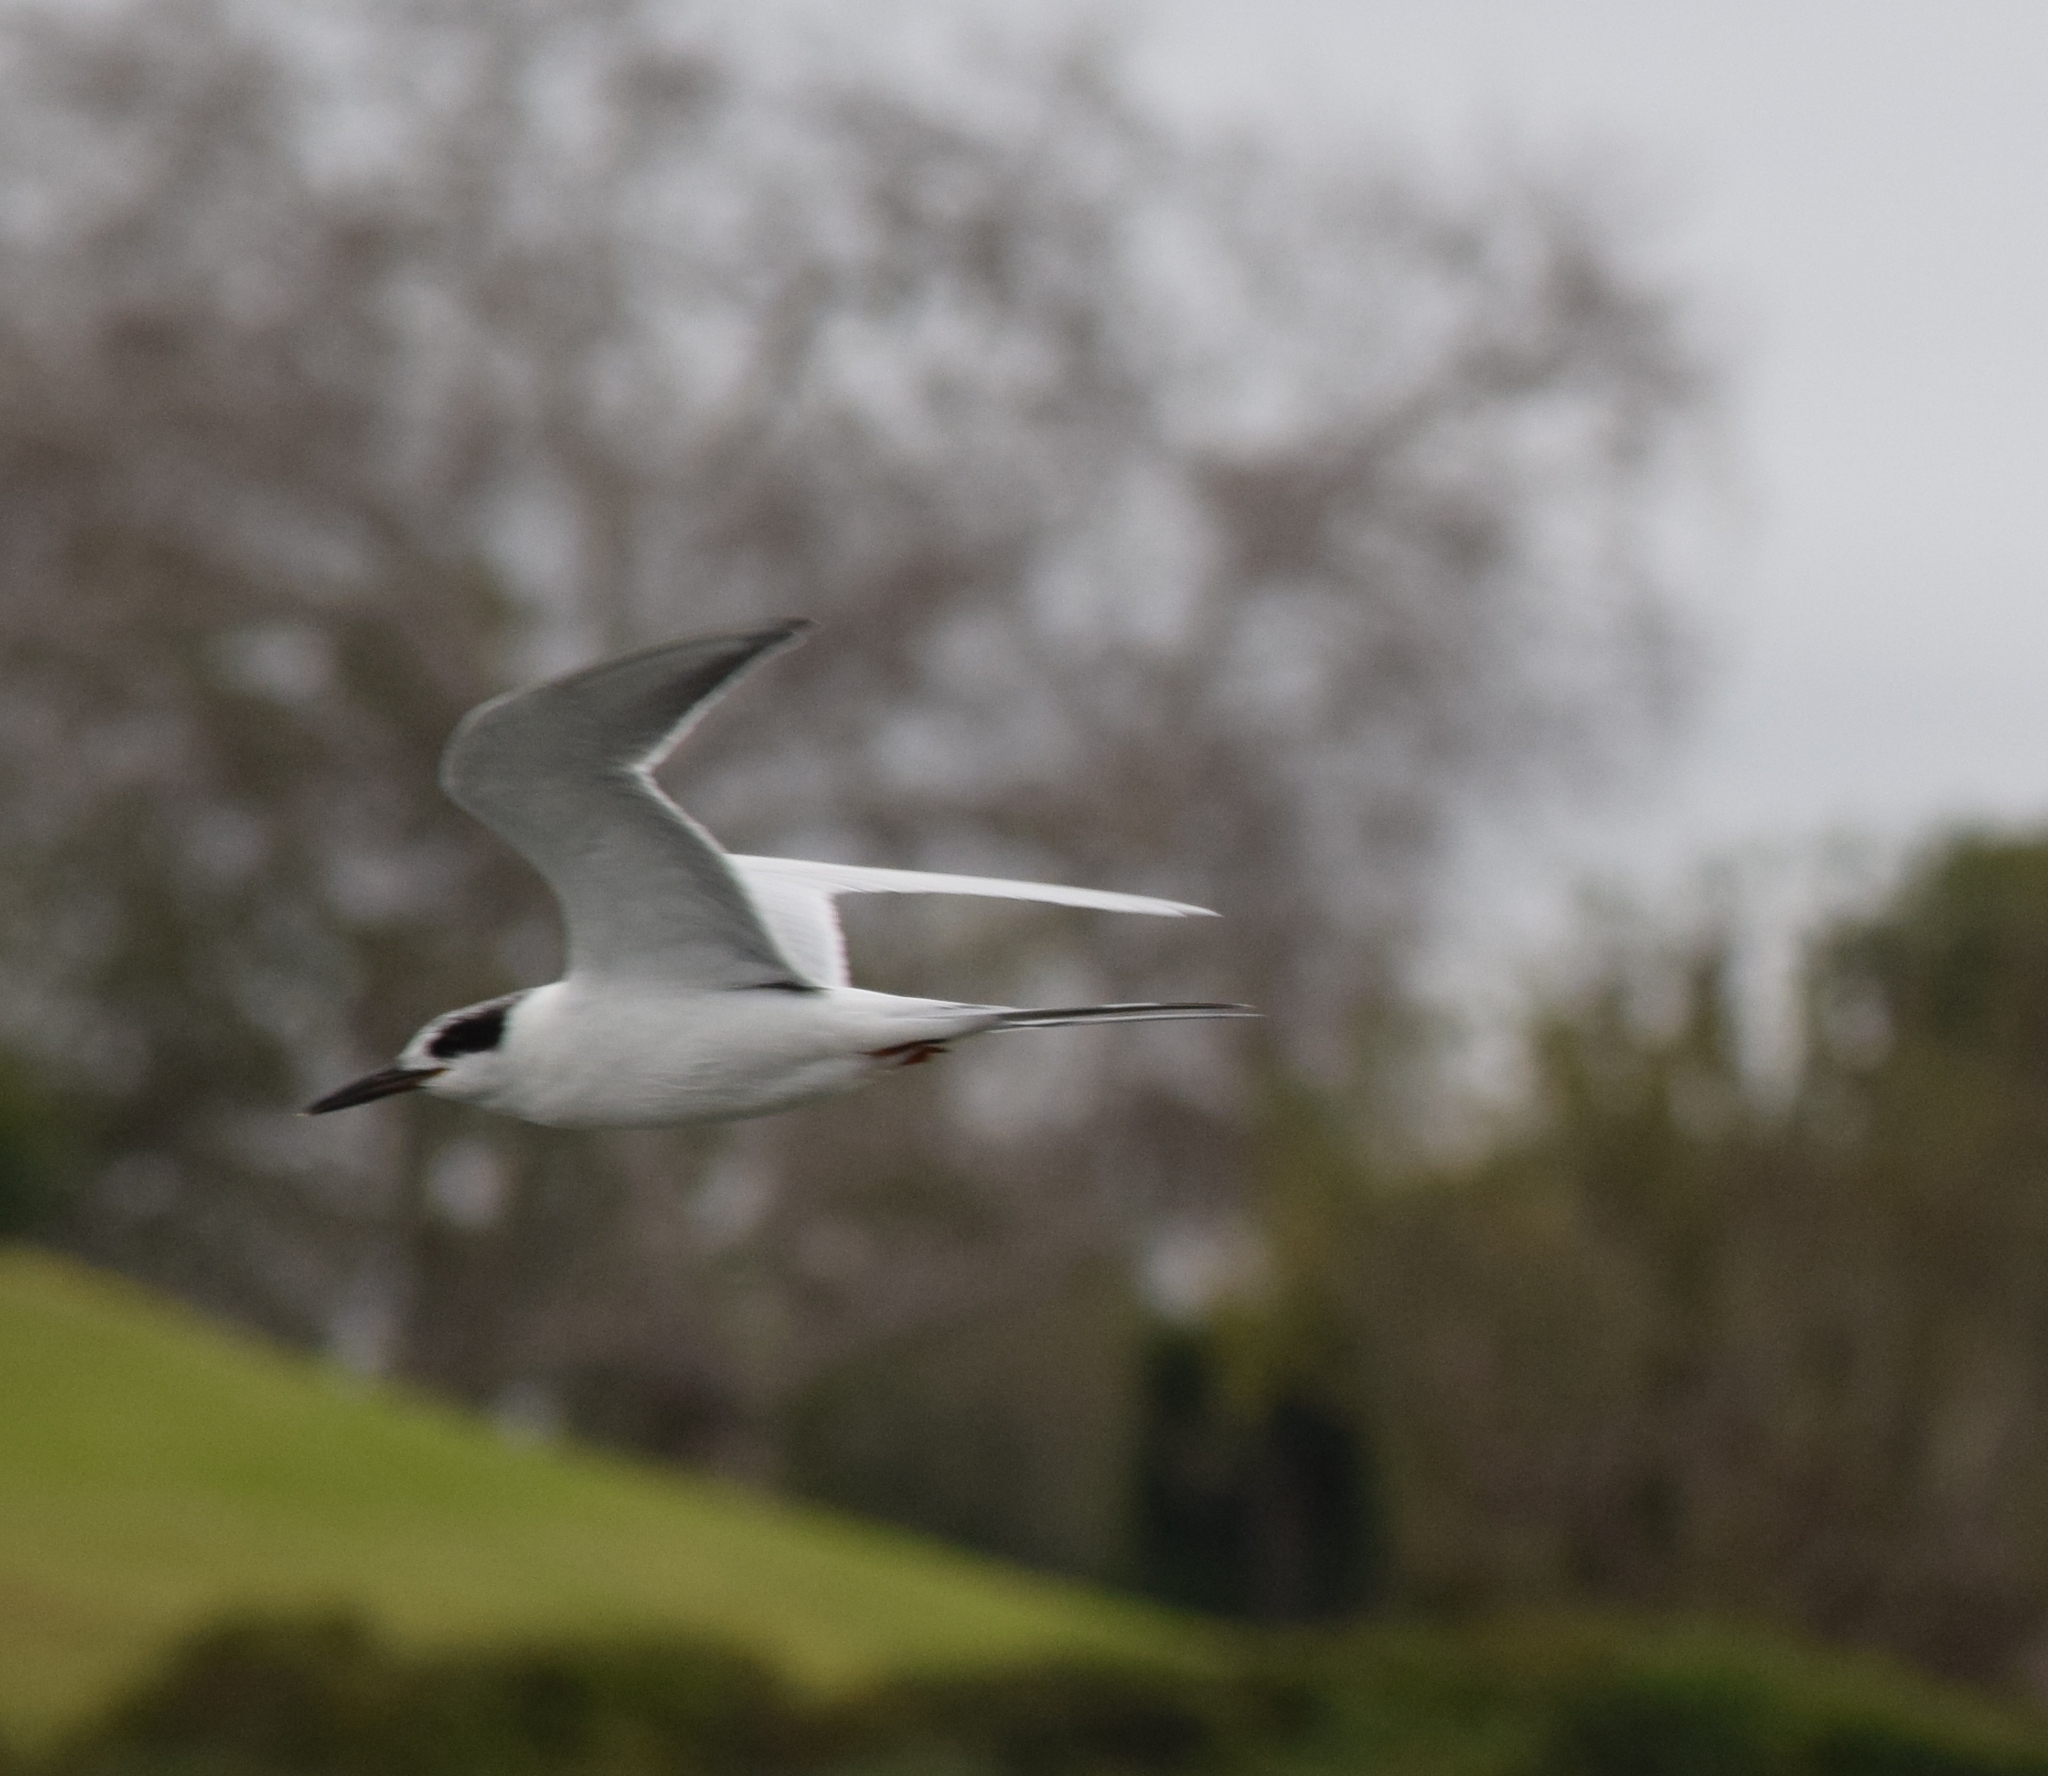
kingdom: Animalia
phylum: Chordata
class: Aves
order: Charadriiformes
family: Laridae
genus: Sterna
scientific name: Sterna forsteri
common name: Forster's tern
